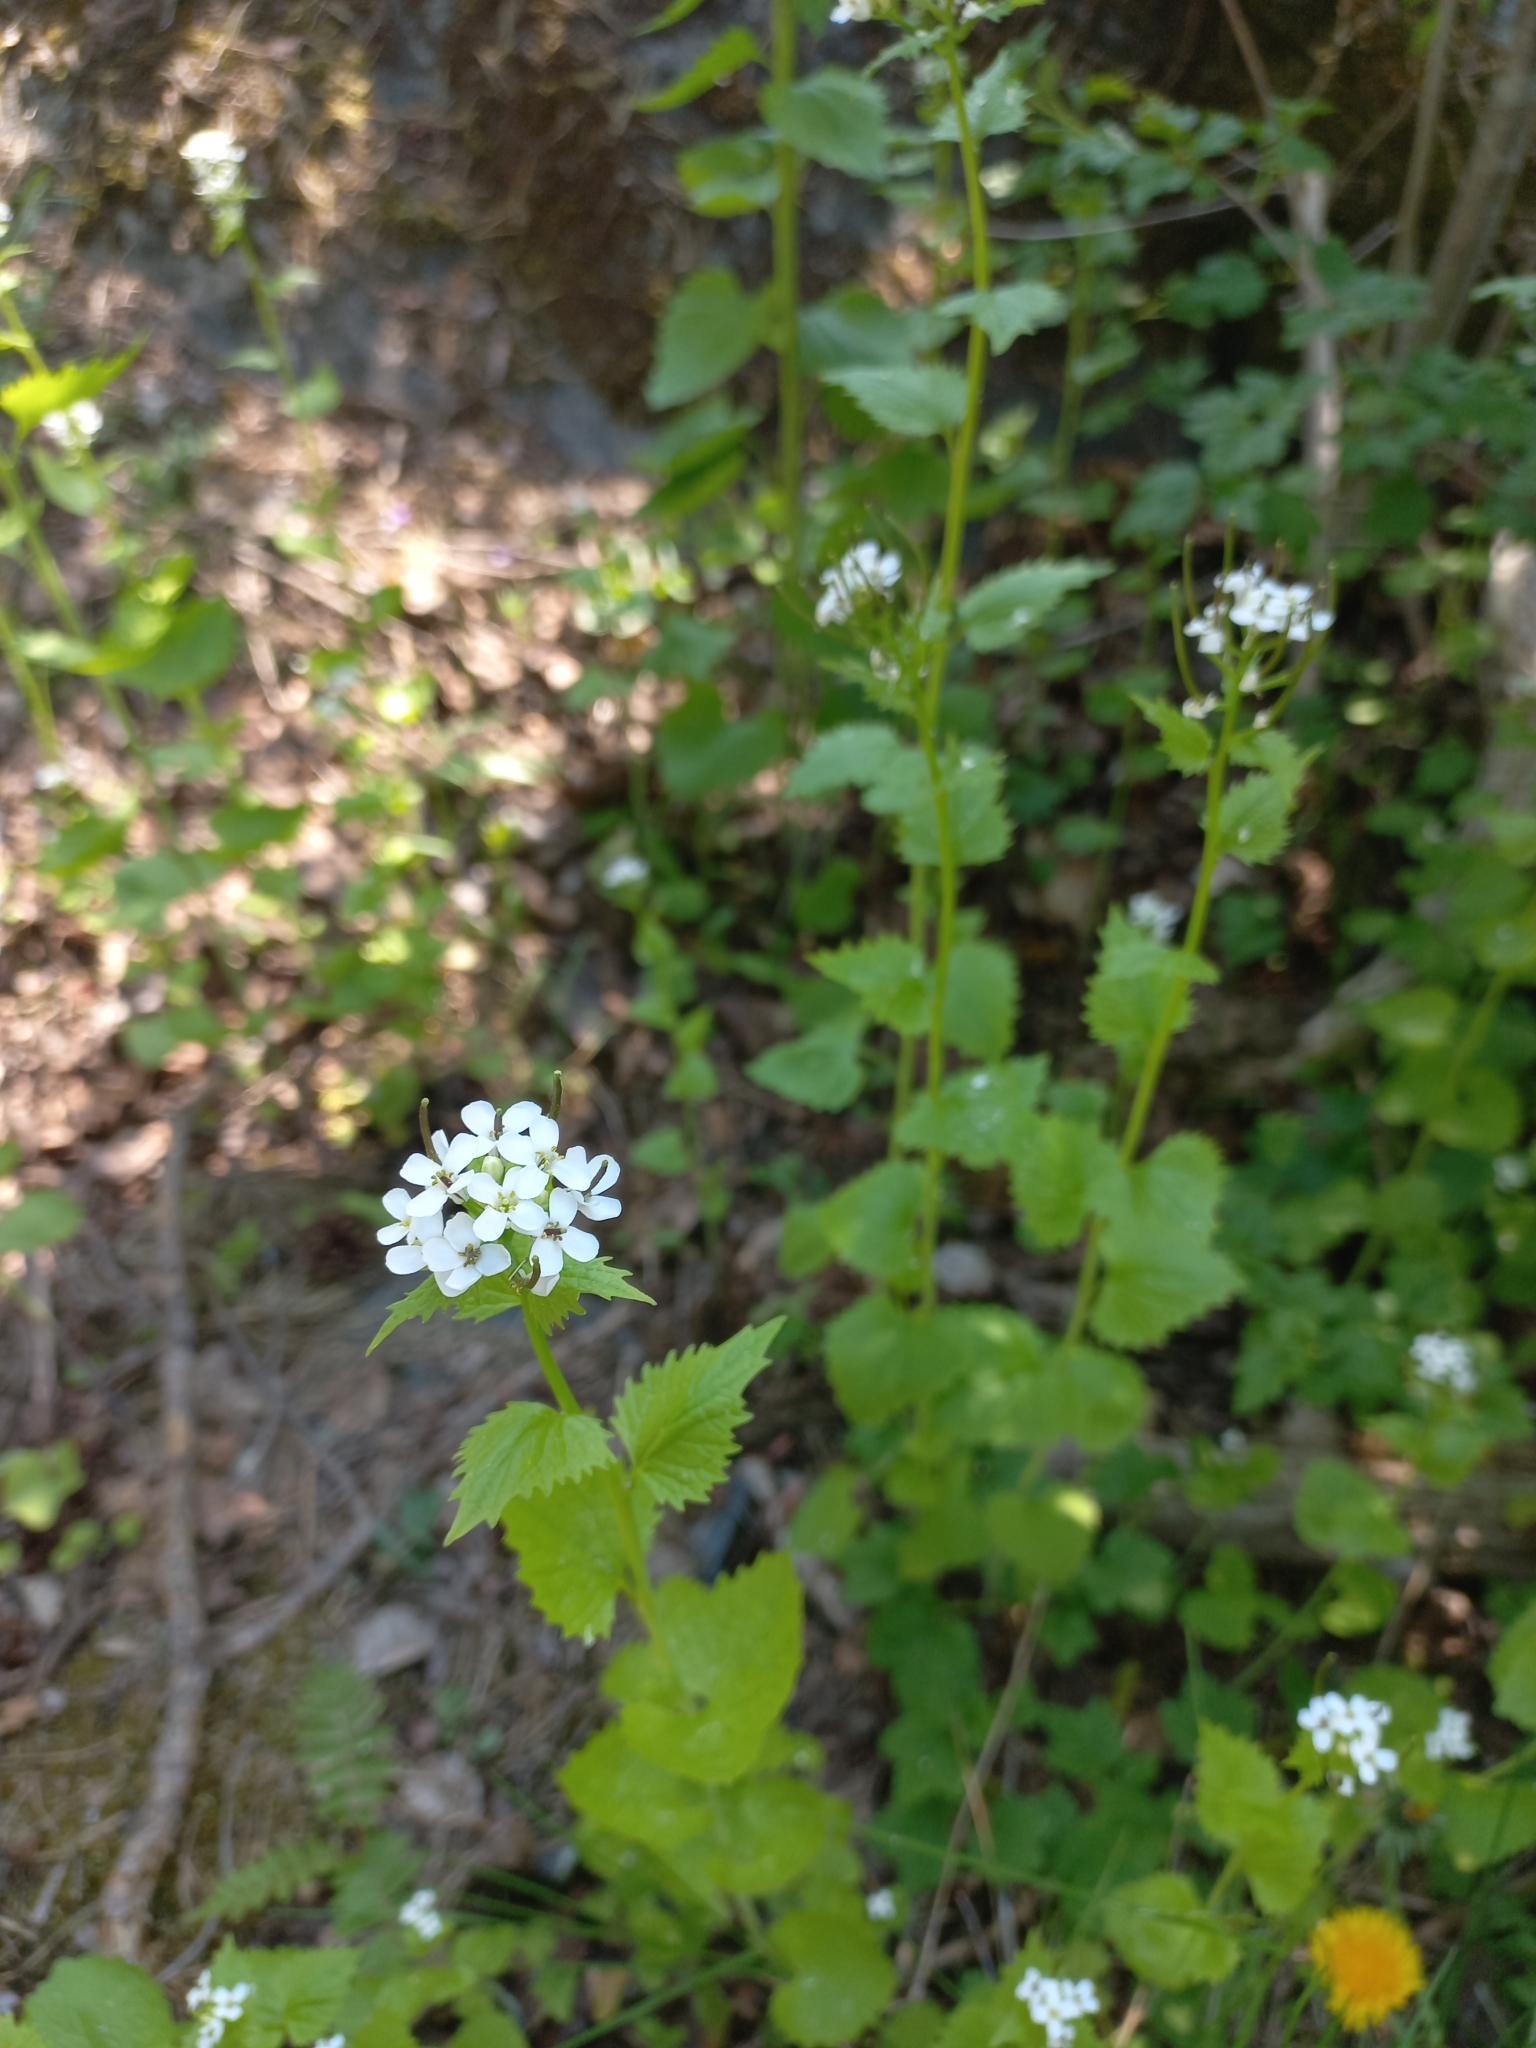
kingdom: Plantae
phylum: Tracheophyta
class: Magnoliopsida
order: Brassicales
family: Brassicaceae
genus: Alliaria
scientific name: Alliaria petiolata
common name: Garlic mustard
